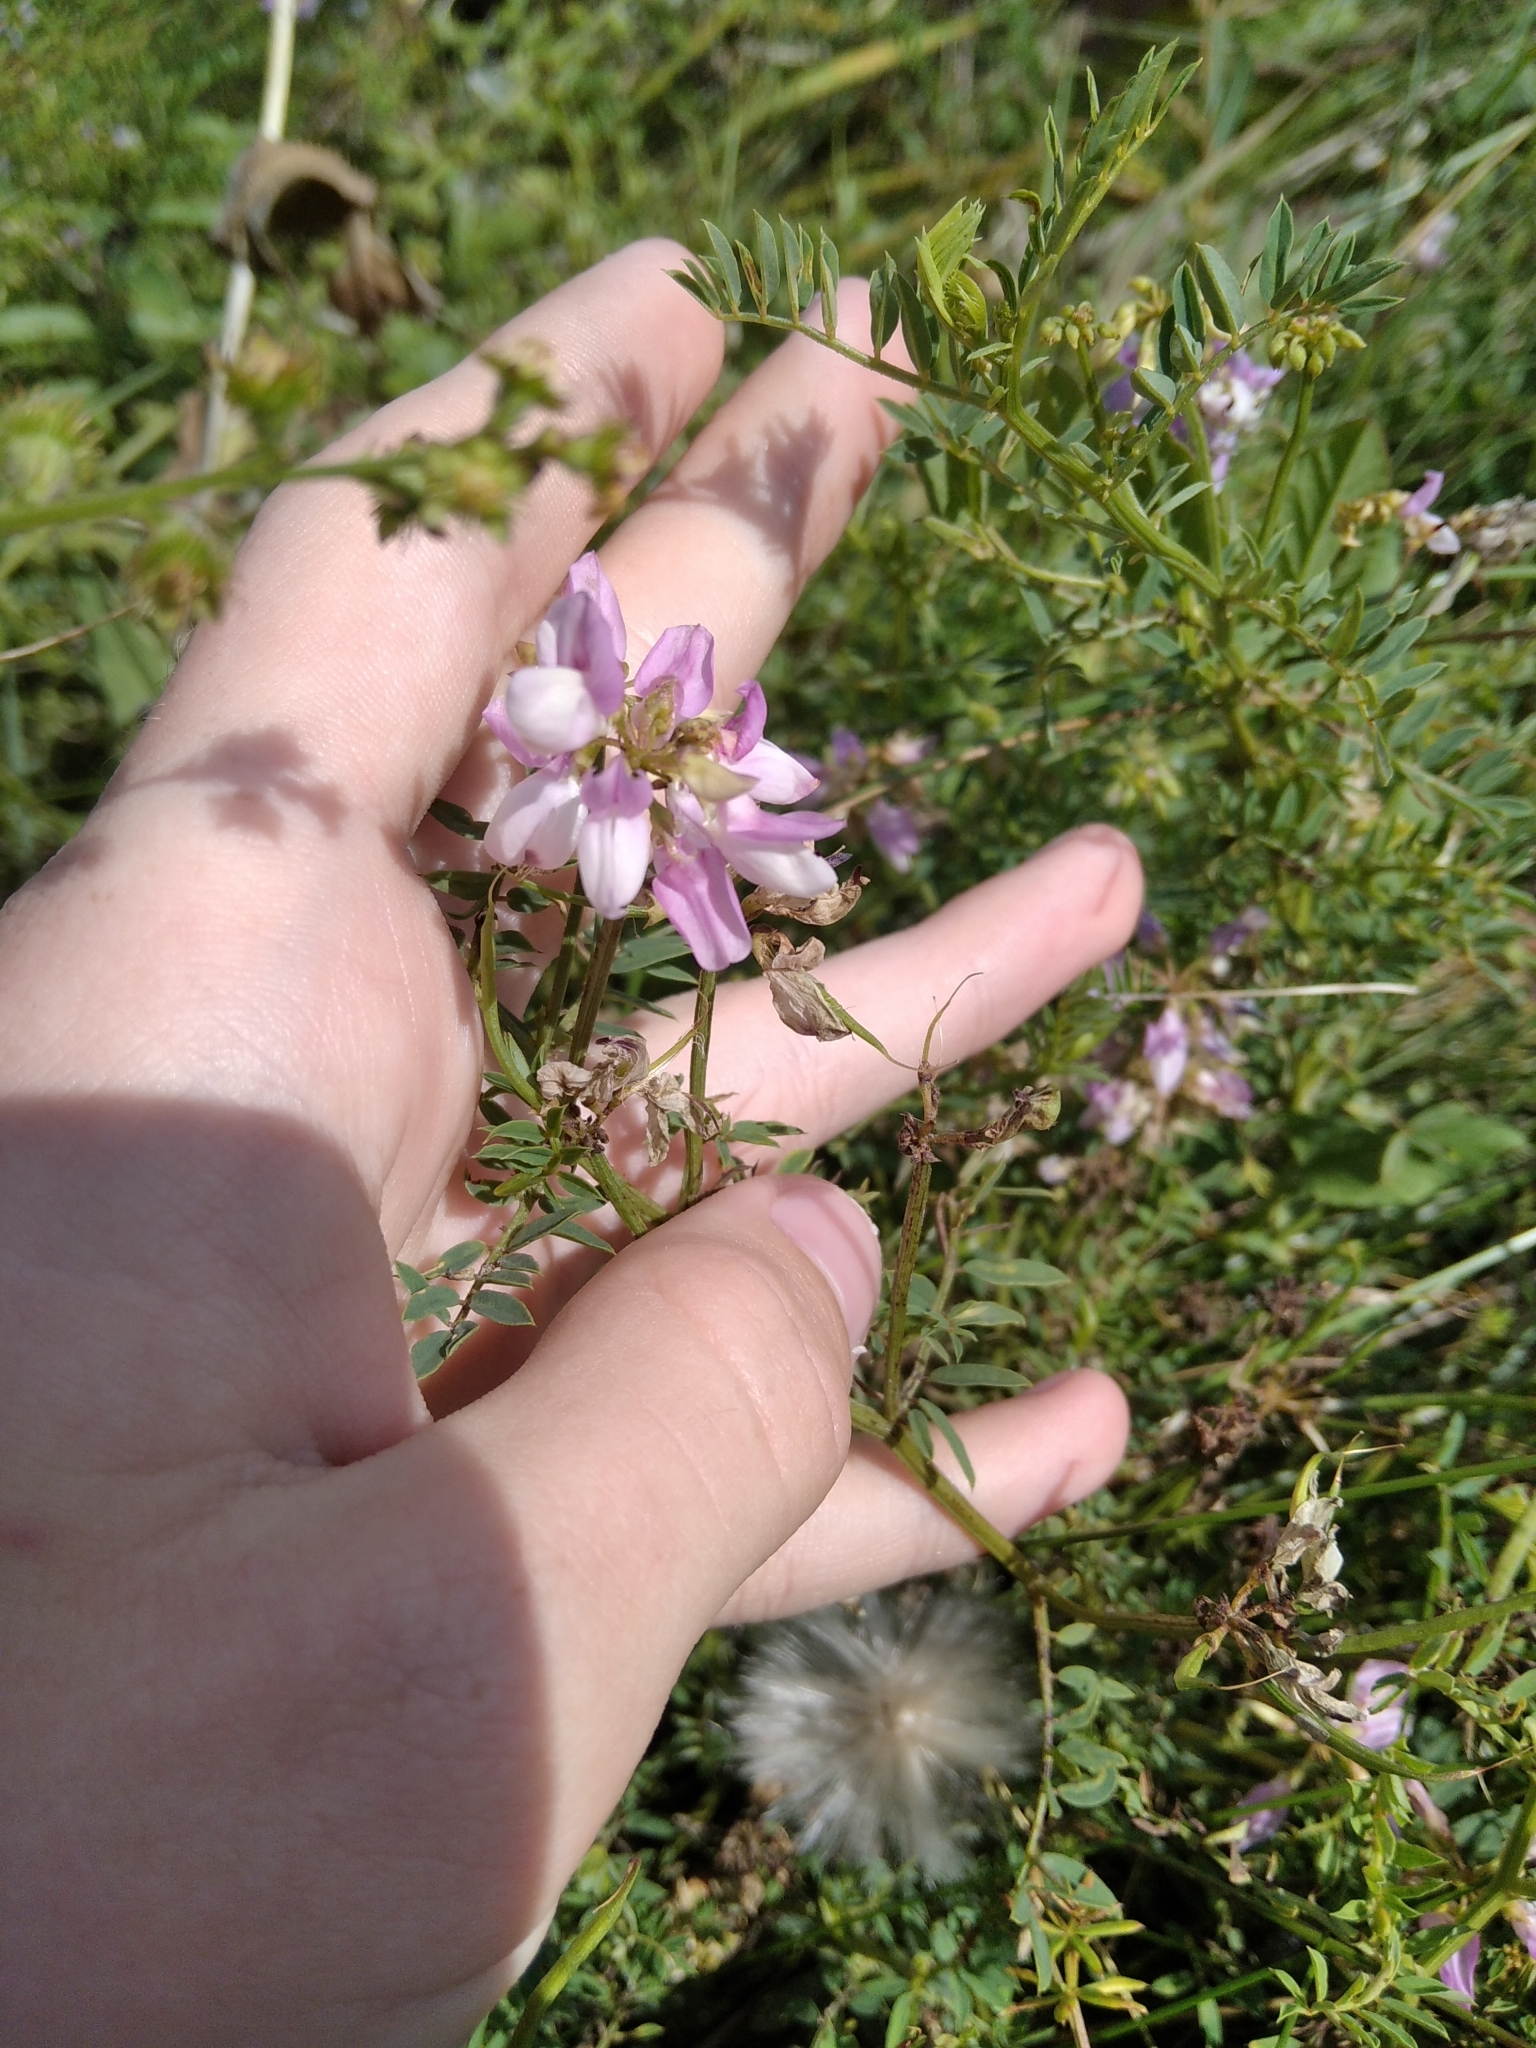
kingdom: Plantae
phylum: Tracheophyta
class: Magnoliopsida
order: Fabales
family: Fabaceae
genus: Coronilla
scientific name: Coronilla varia
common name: Crownvetch
